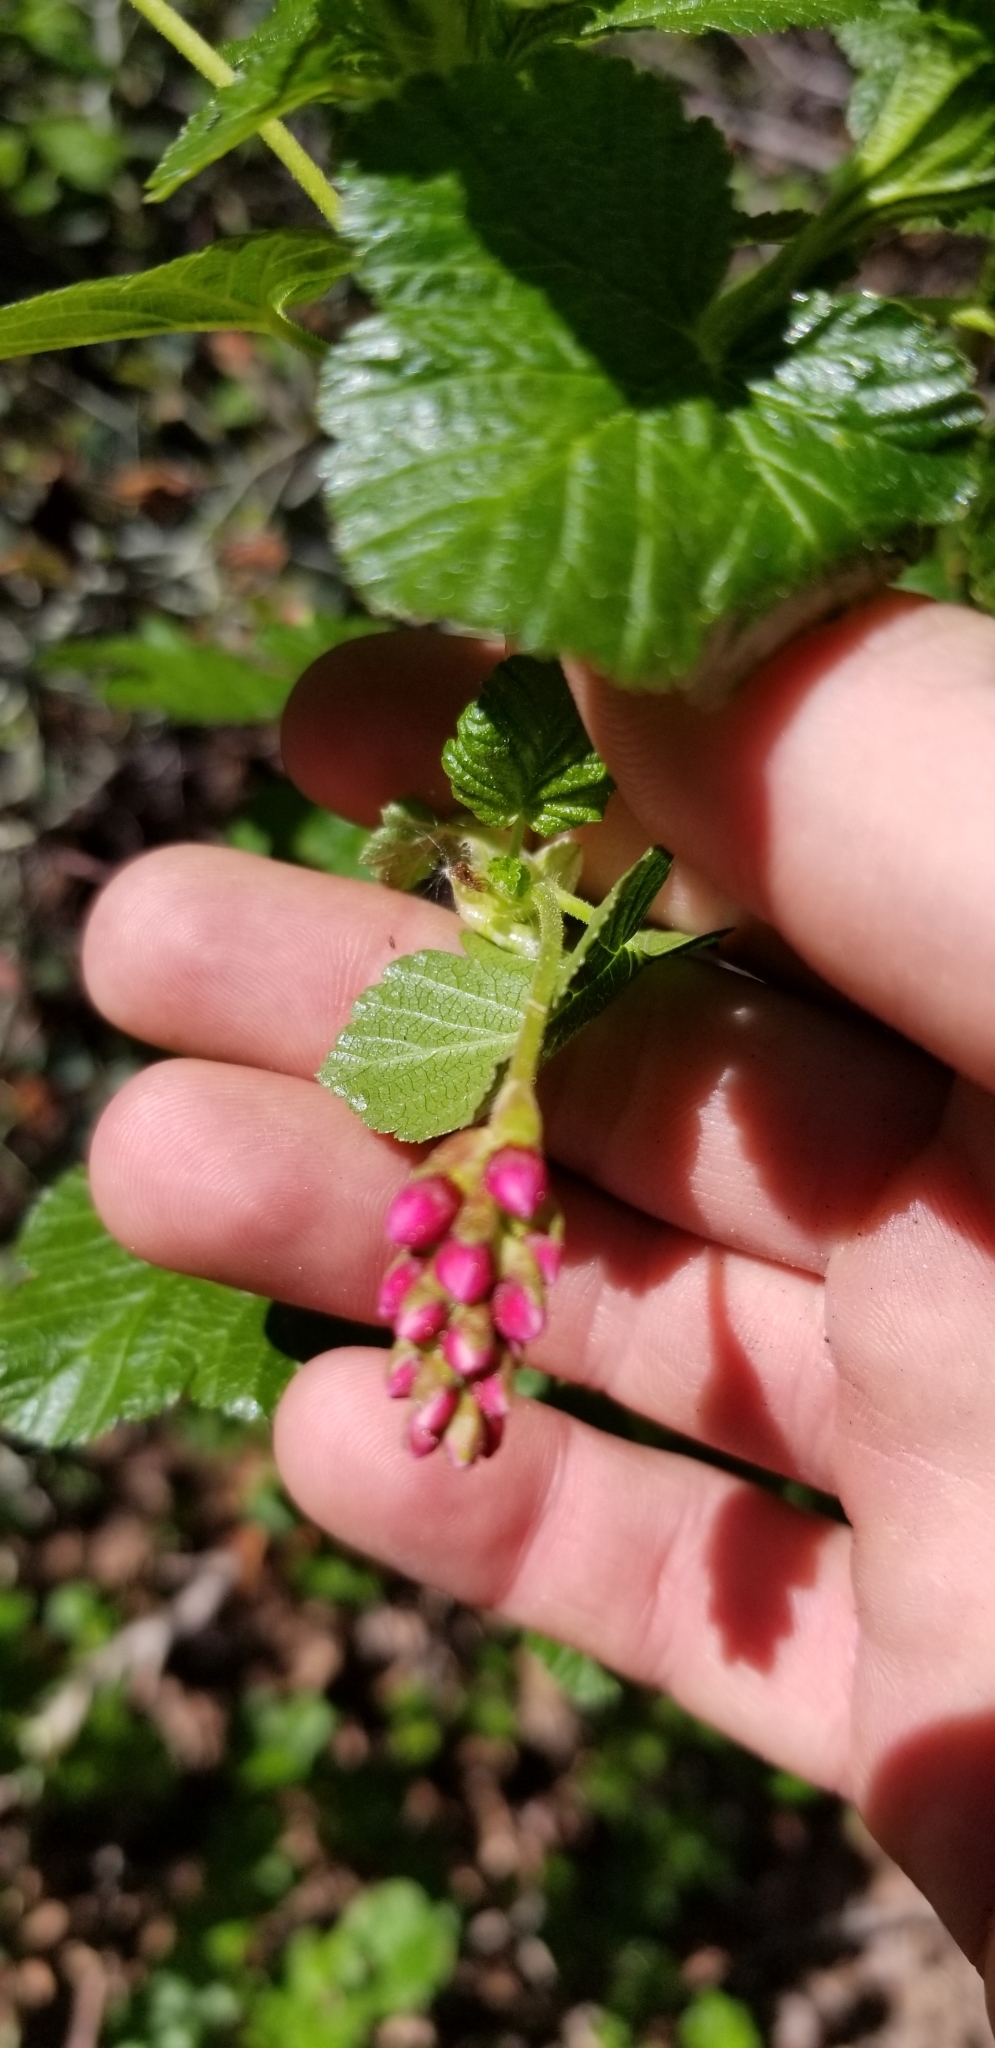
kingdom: Plantae
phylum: Tracheophyta
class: Magnoliopsida
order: Saxifragales
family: Grossulariaceae
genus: Ribes
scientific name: Ribes nevadense
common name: Mountain pink currant
